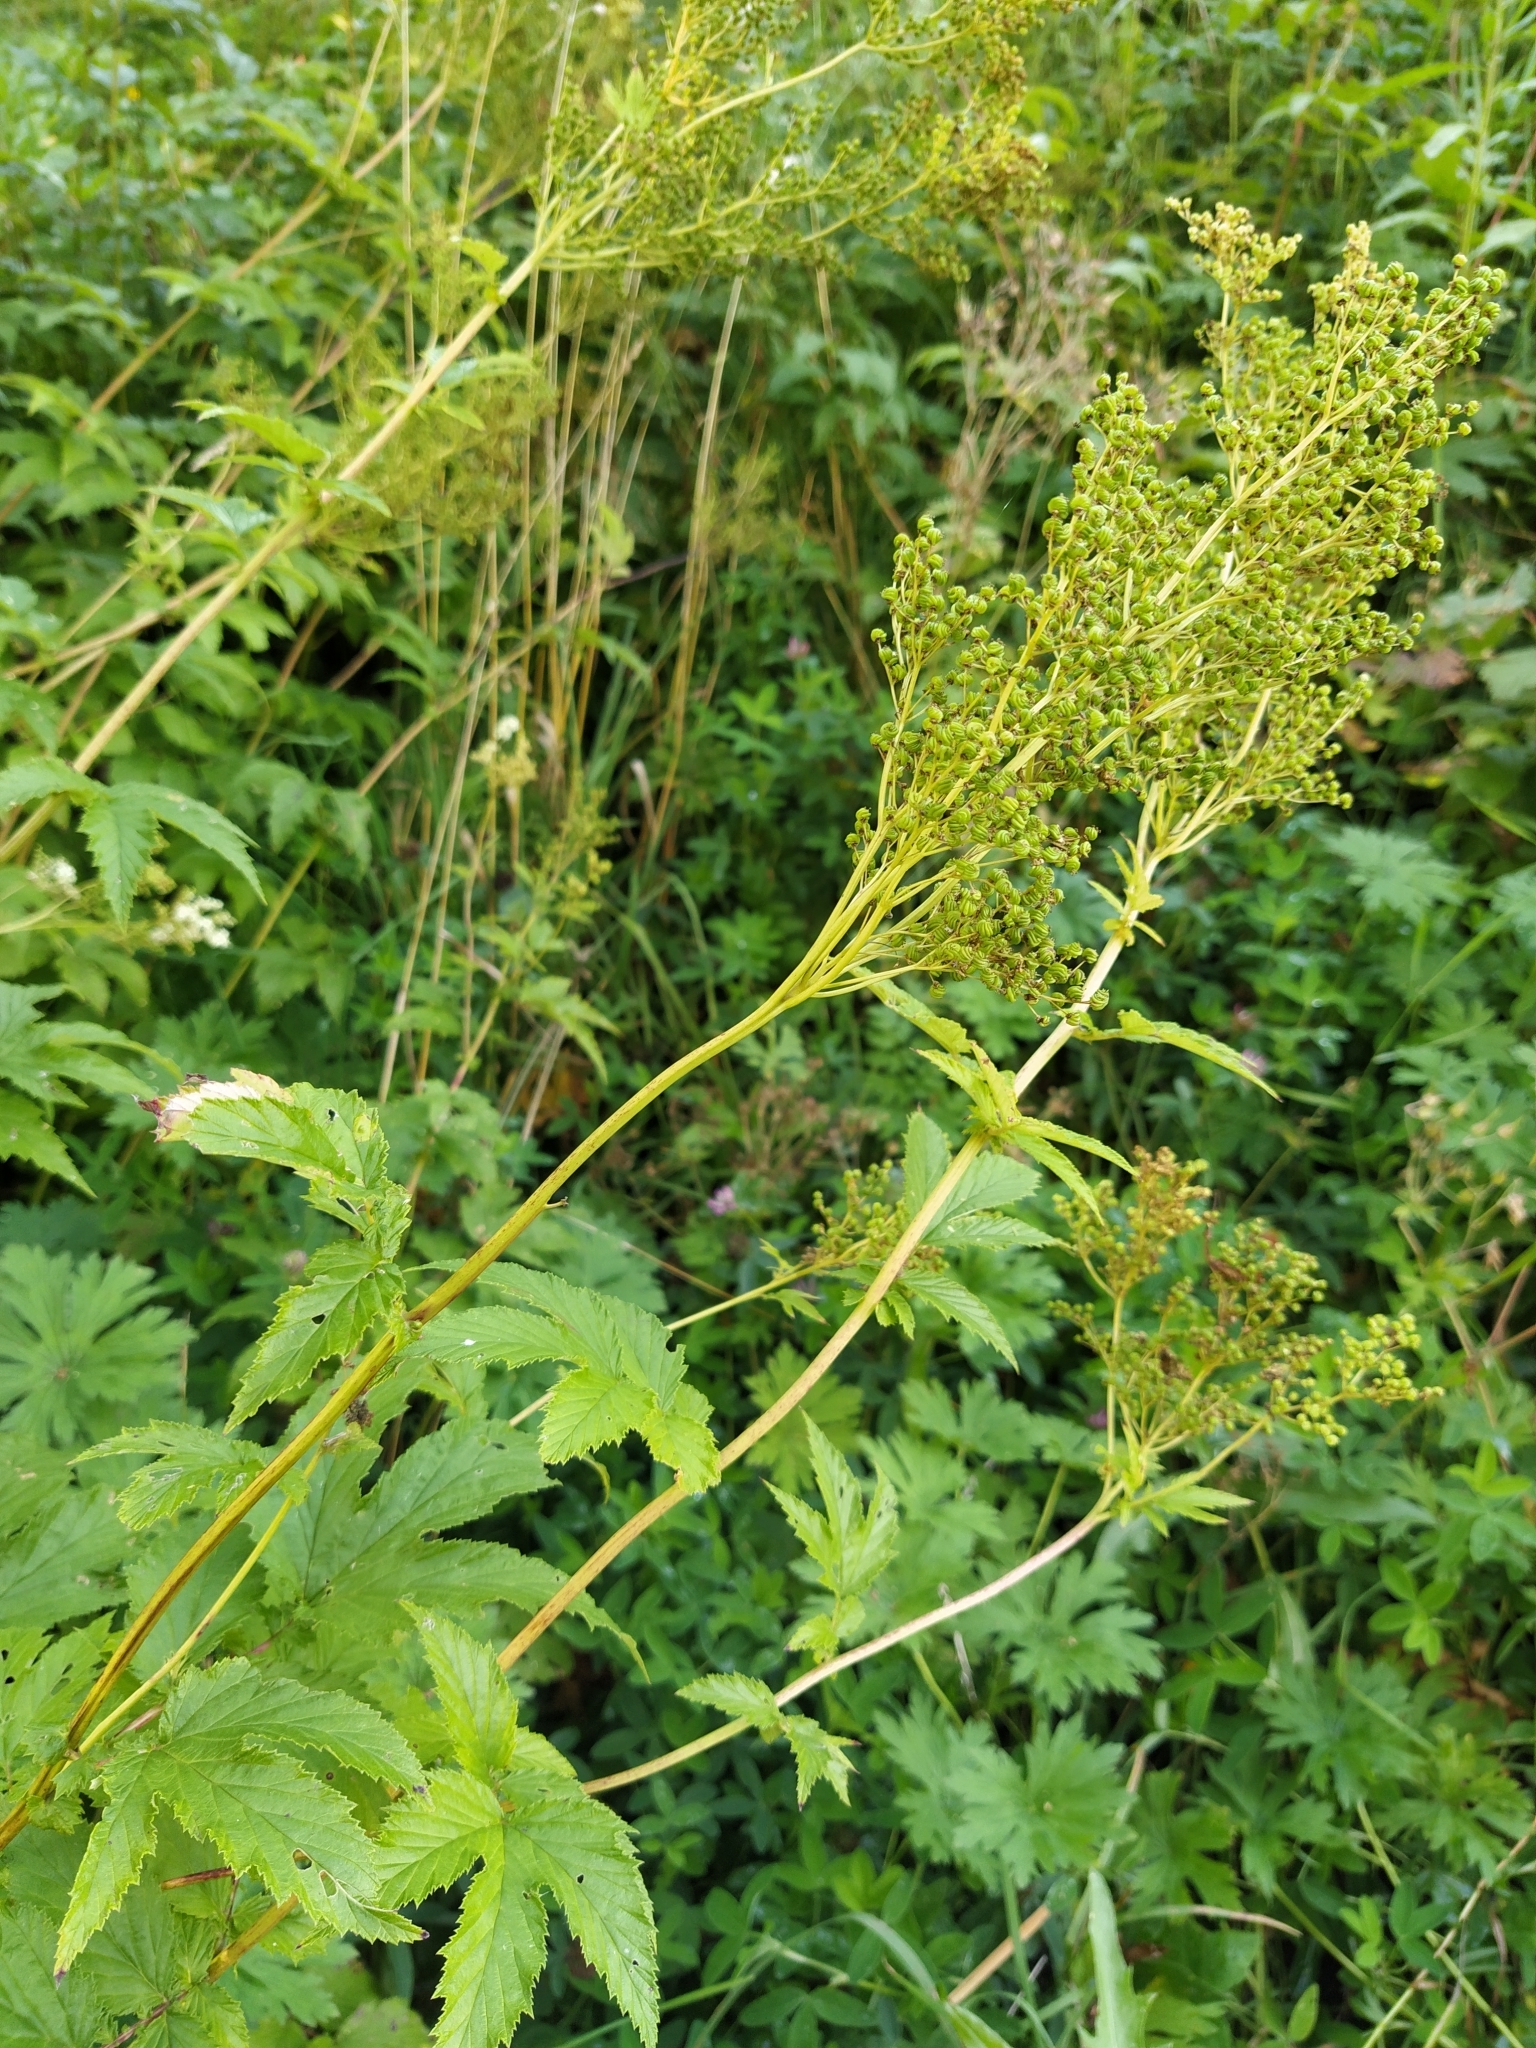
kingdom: Plantae
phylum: Tracheophyta
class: Magnoliopsida
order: Rosales
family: Rosaceae
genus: Filipendula
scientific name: Filipendula ulmaria
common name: Meadowsweet
